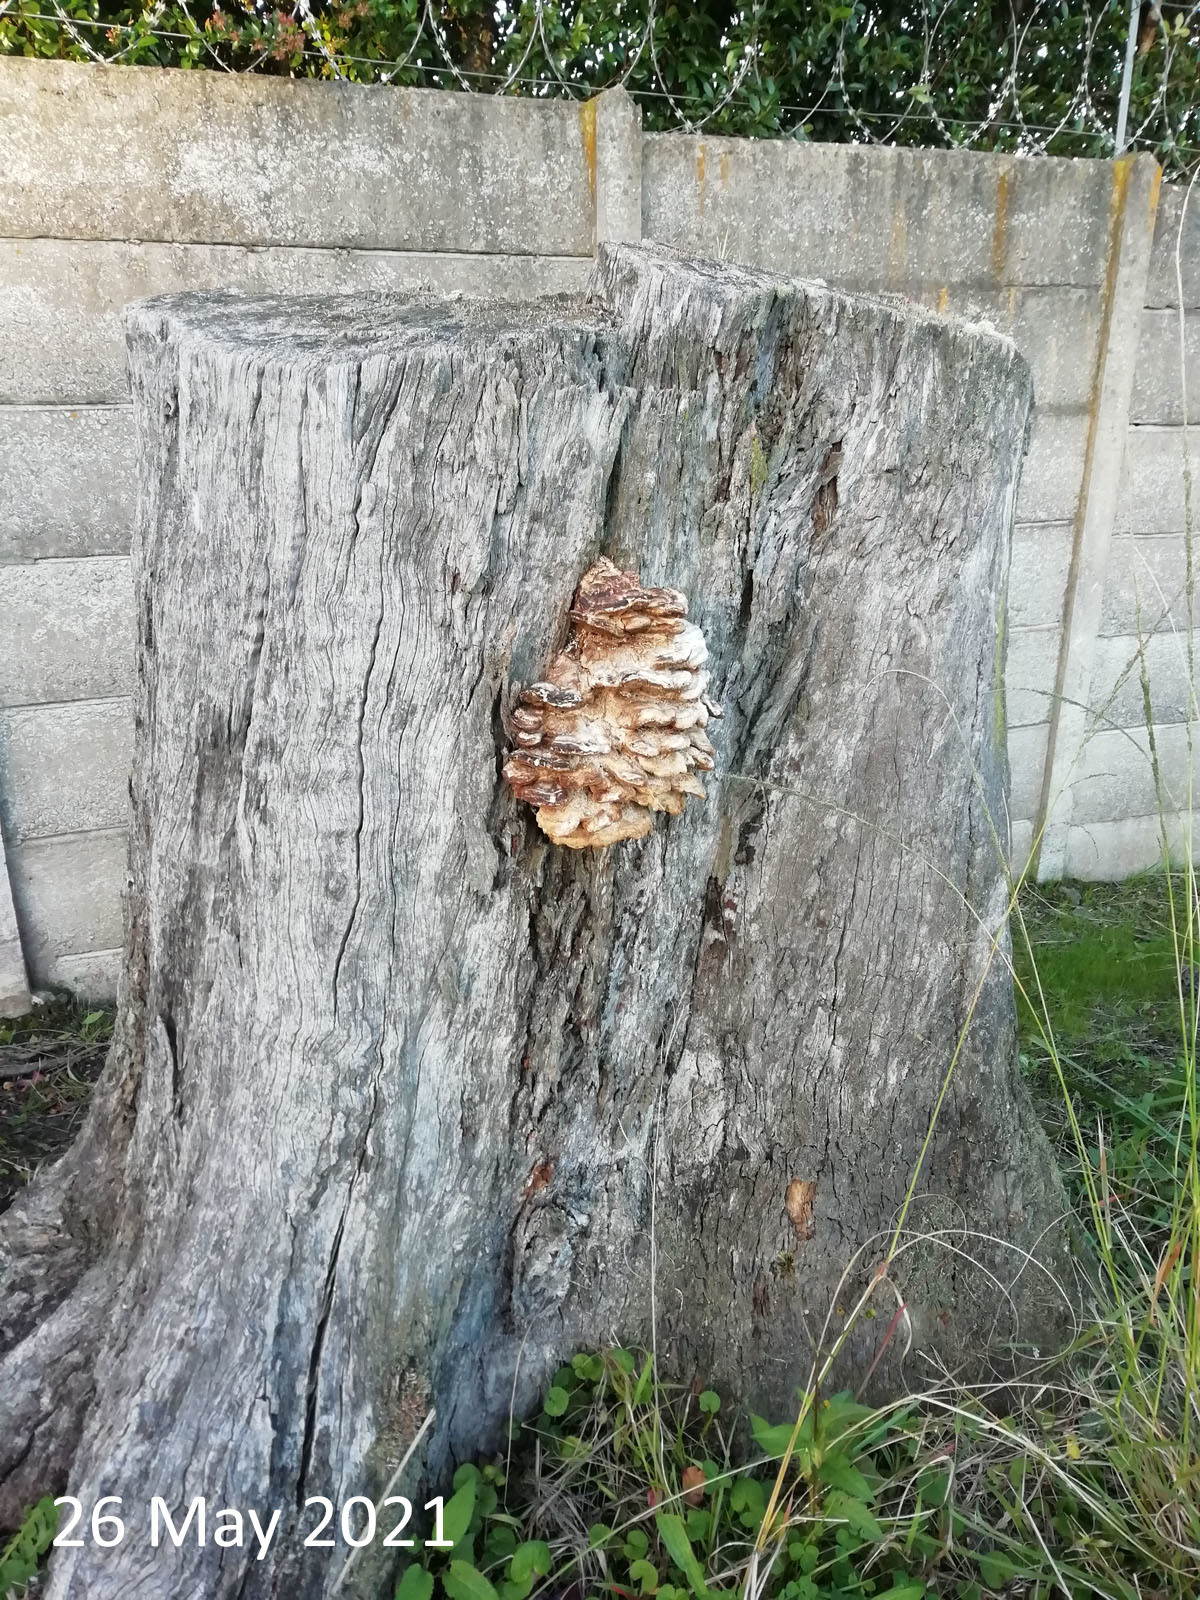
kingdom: Fungi
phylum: Basidiomycota
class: Agaricomycetes
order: Polyporales
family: Laetiporaceae
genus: Laetiporus
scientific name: Laetiporus sulphureus
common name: Chicken of the woods
